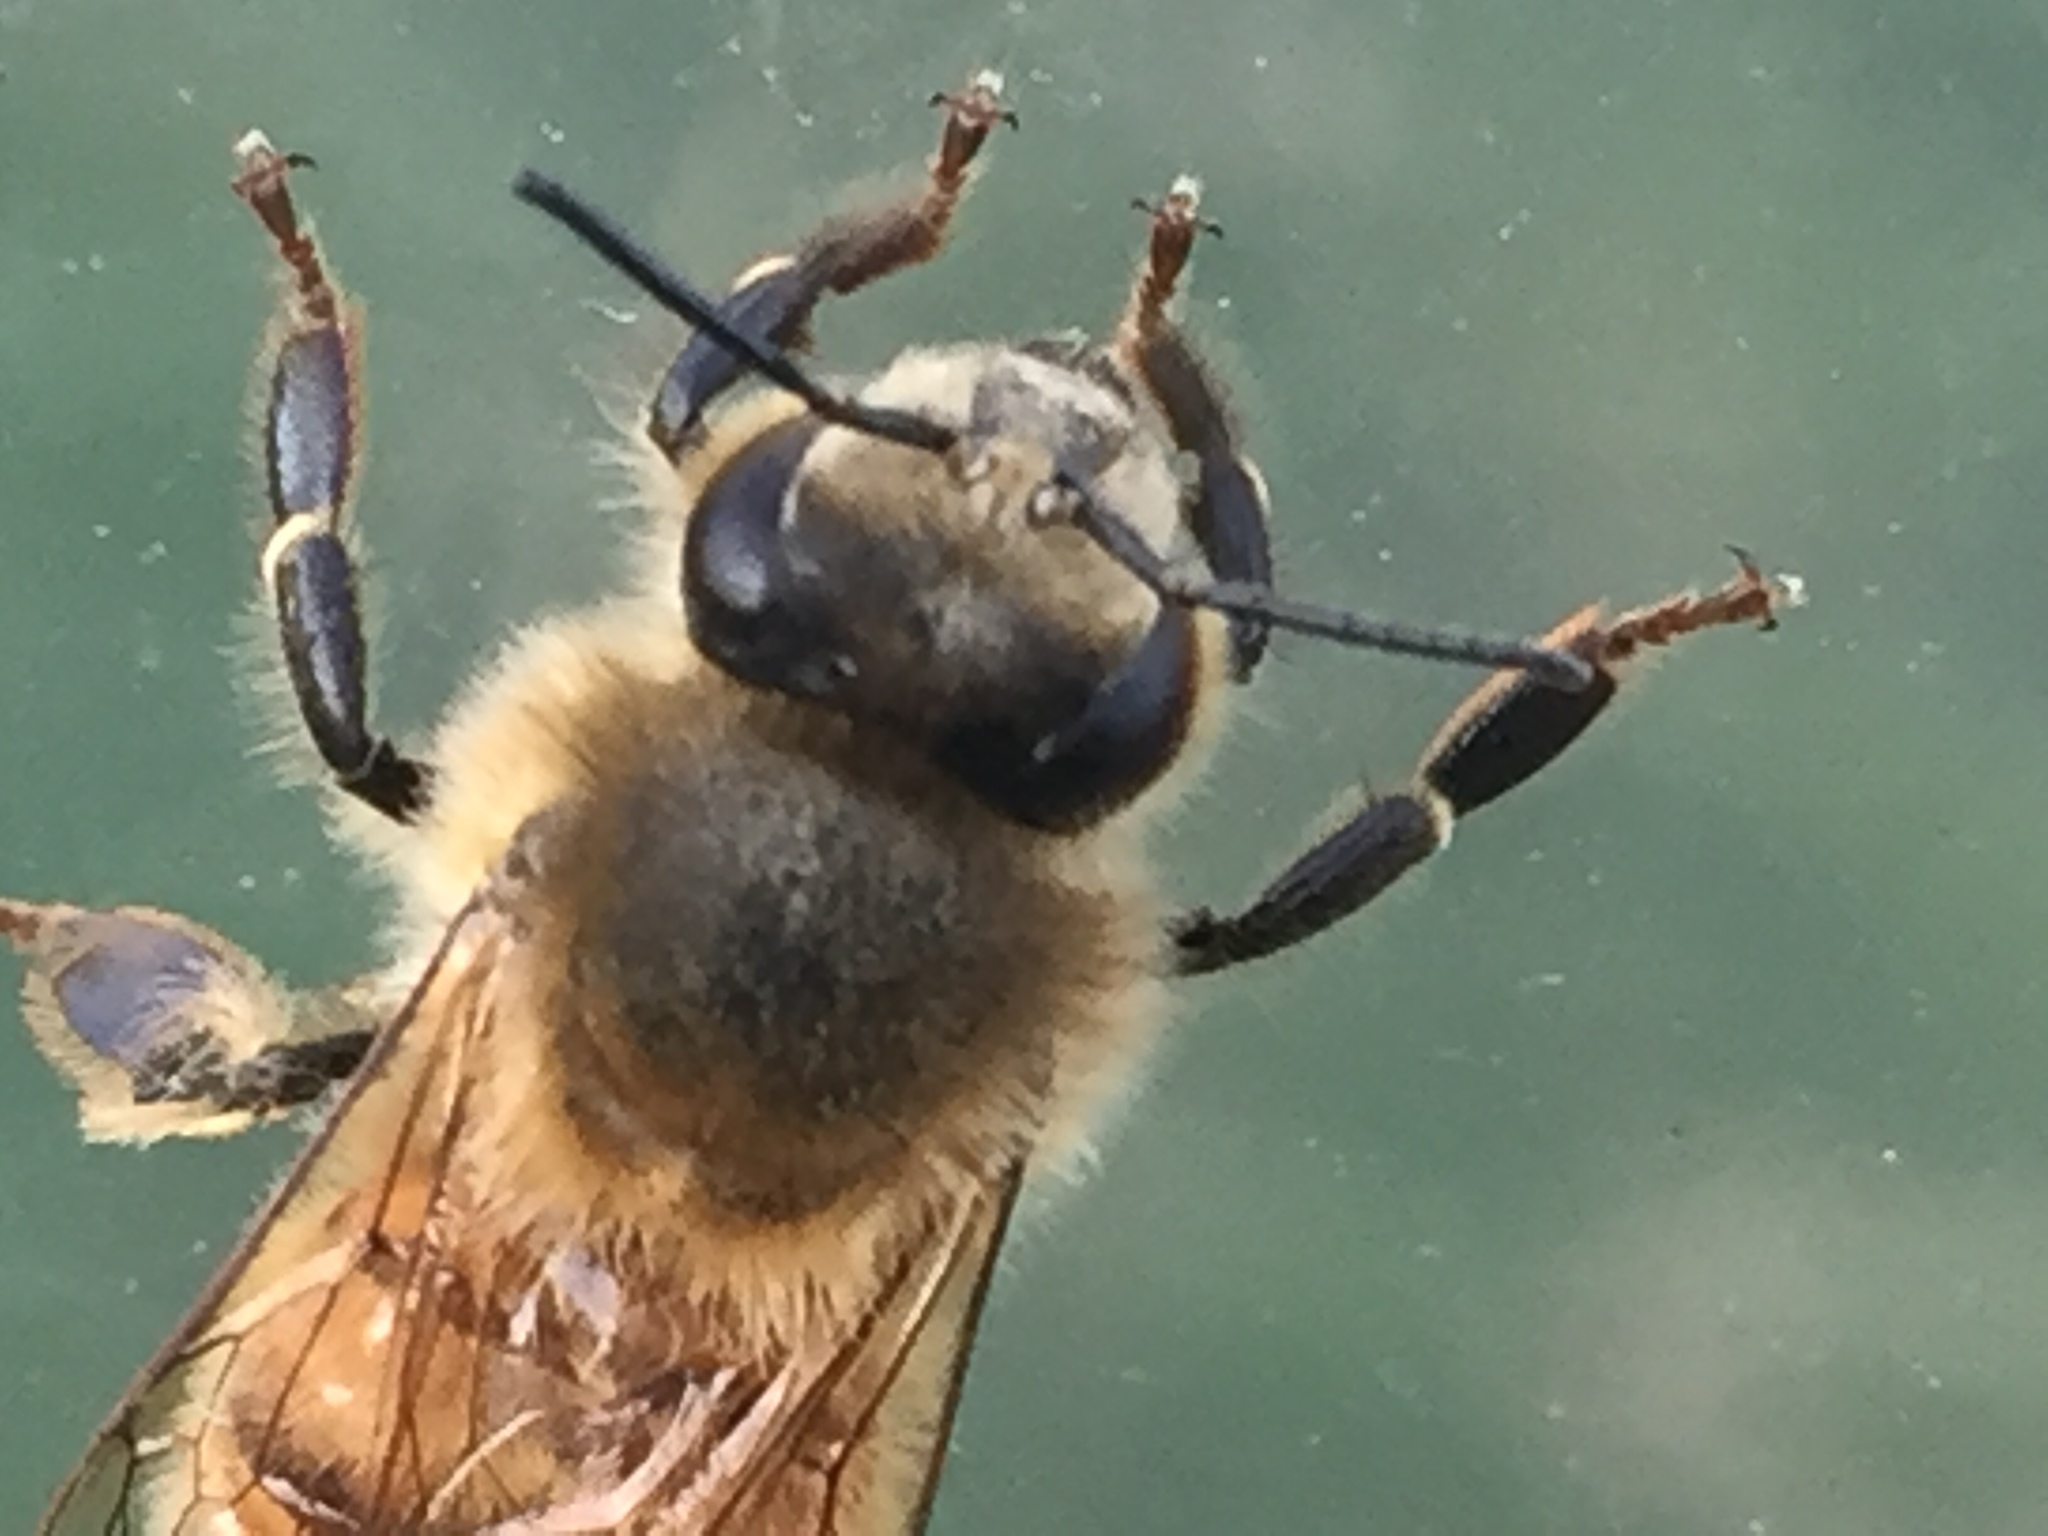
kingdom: Animalia
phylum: Arthropoda
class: Insecta
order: Hymenoptera
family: Apidae
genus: Apis
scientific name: Apis mellifera
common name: Honey bee
